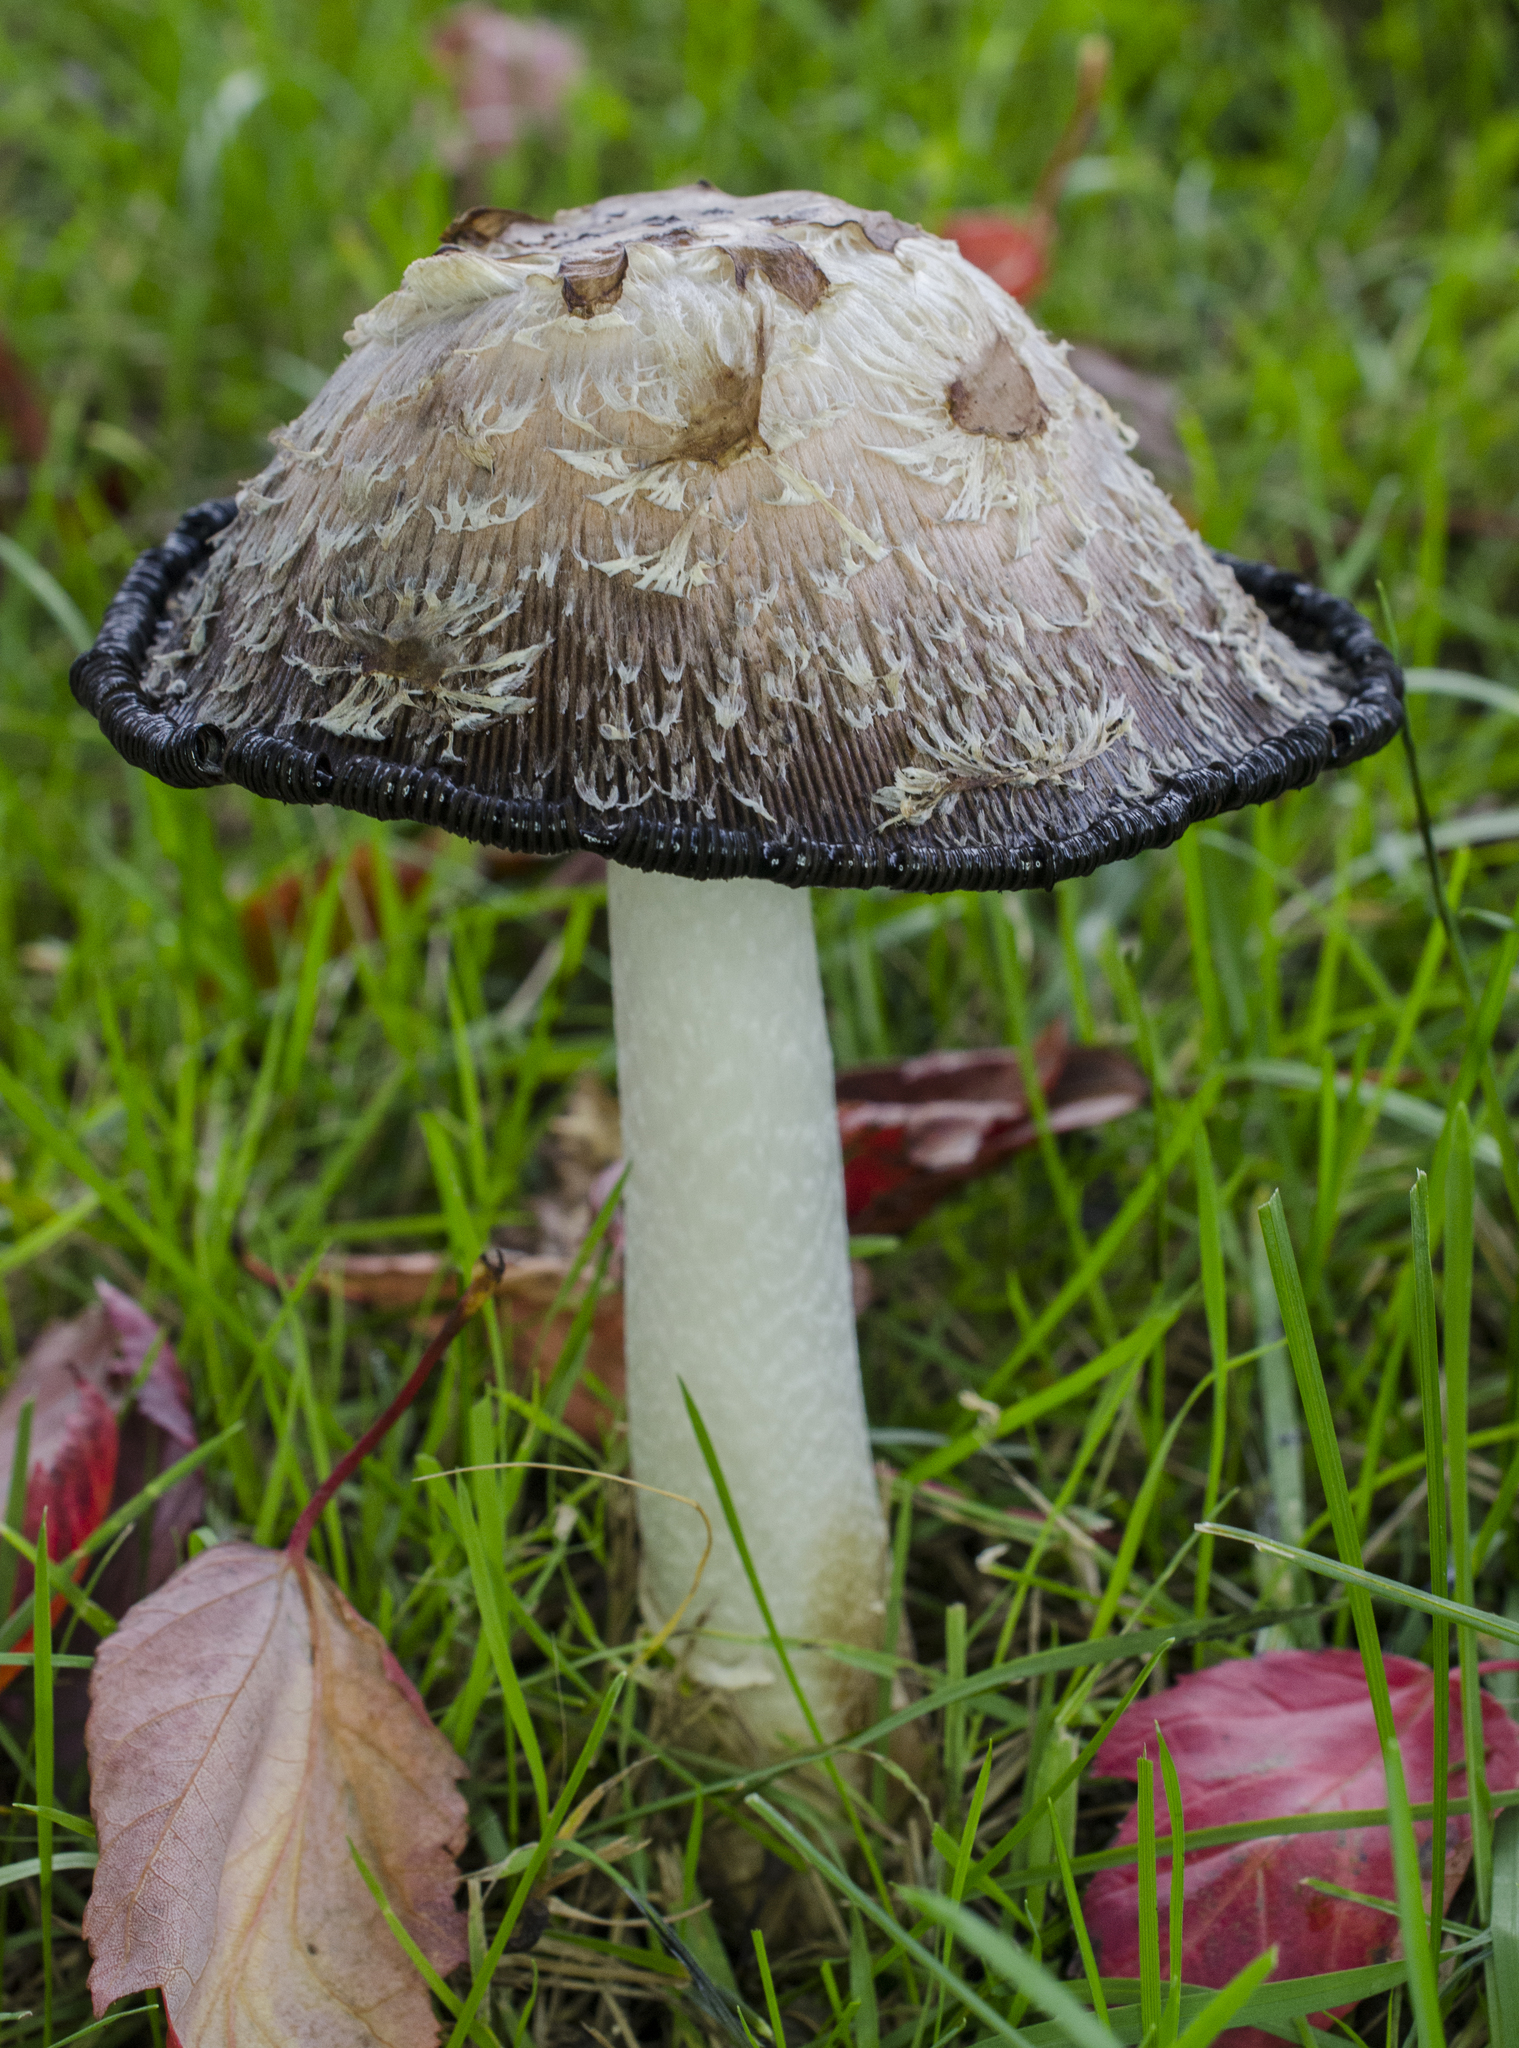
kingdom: Fungi
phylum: Basidiomycota
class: Agaricomycetes
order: Agaricales
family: Agaricaceae
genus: Coprinus
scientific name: Coprinus comatus
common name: Lawyer's wig
